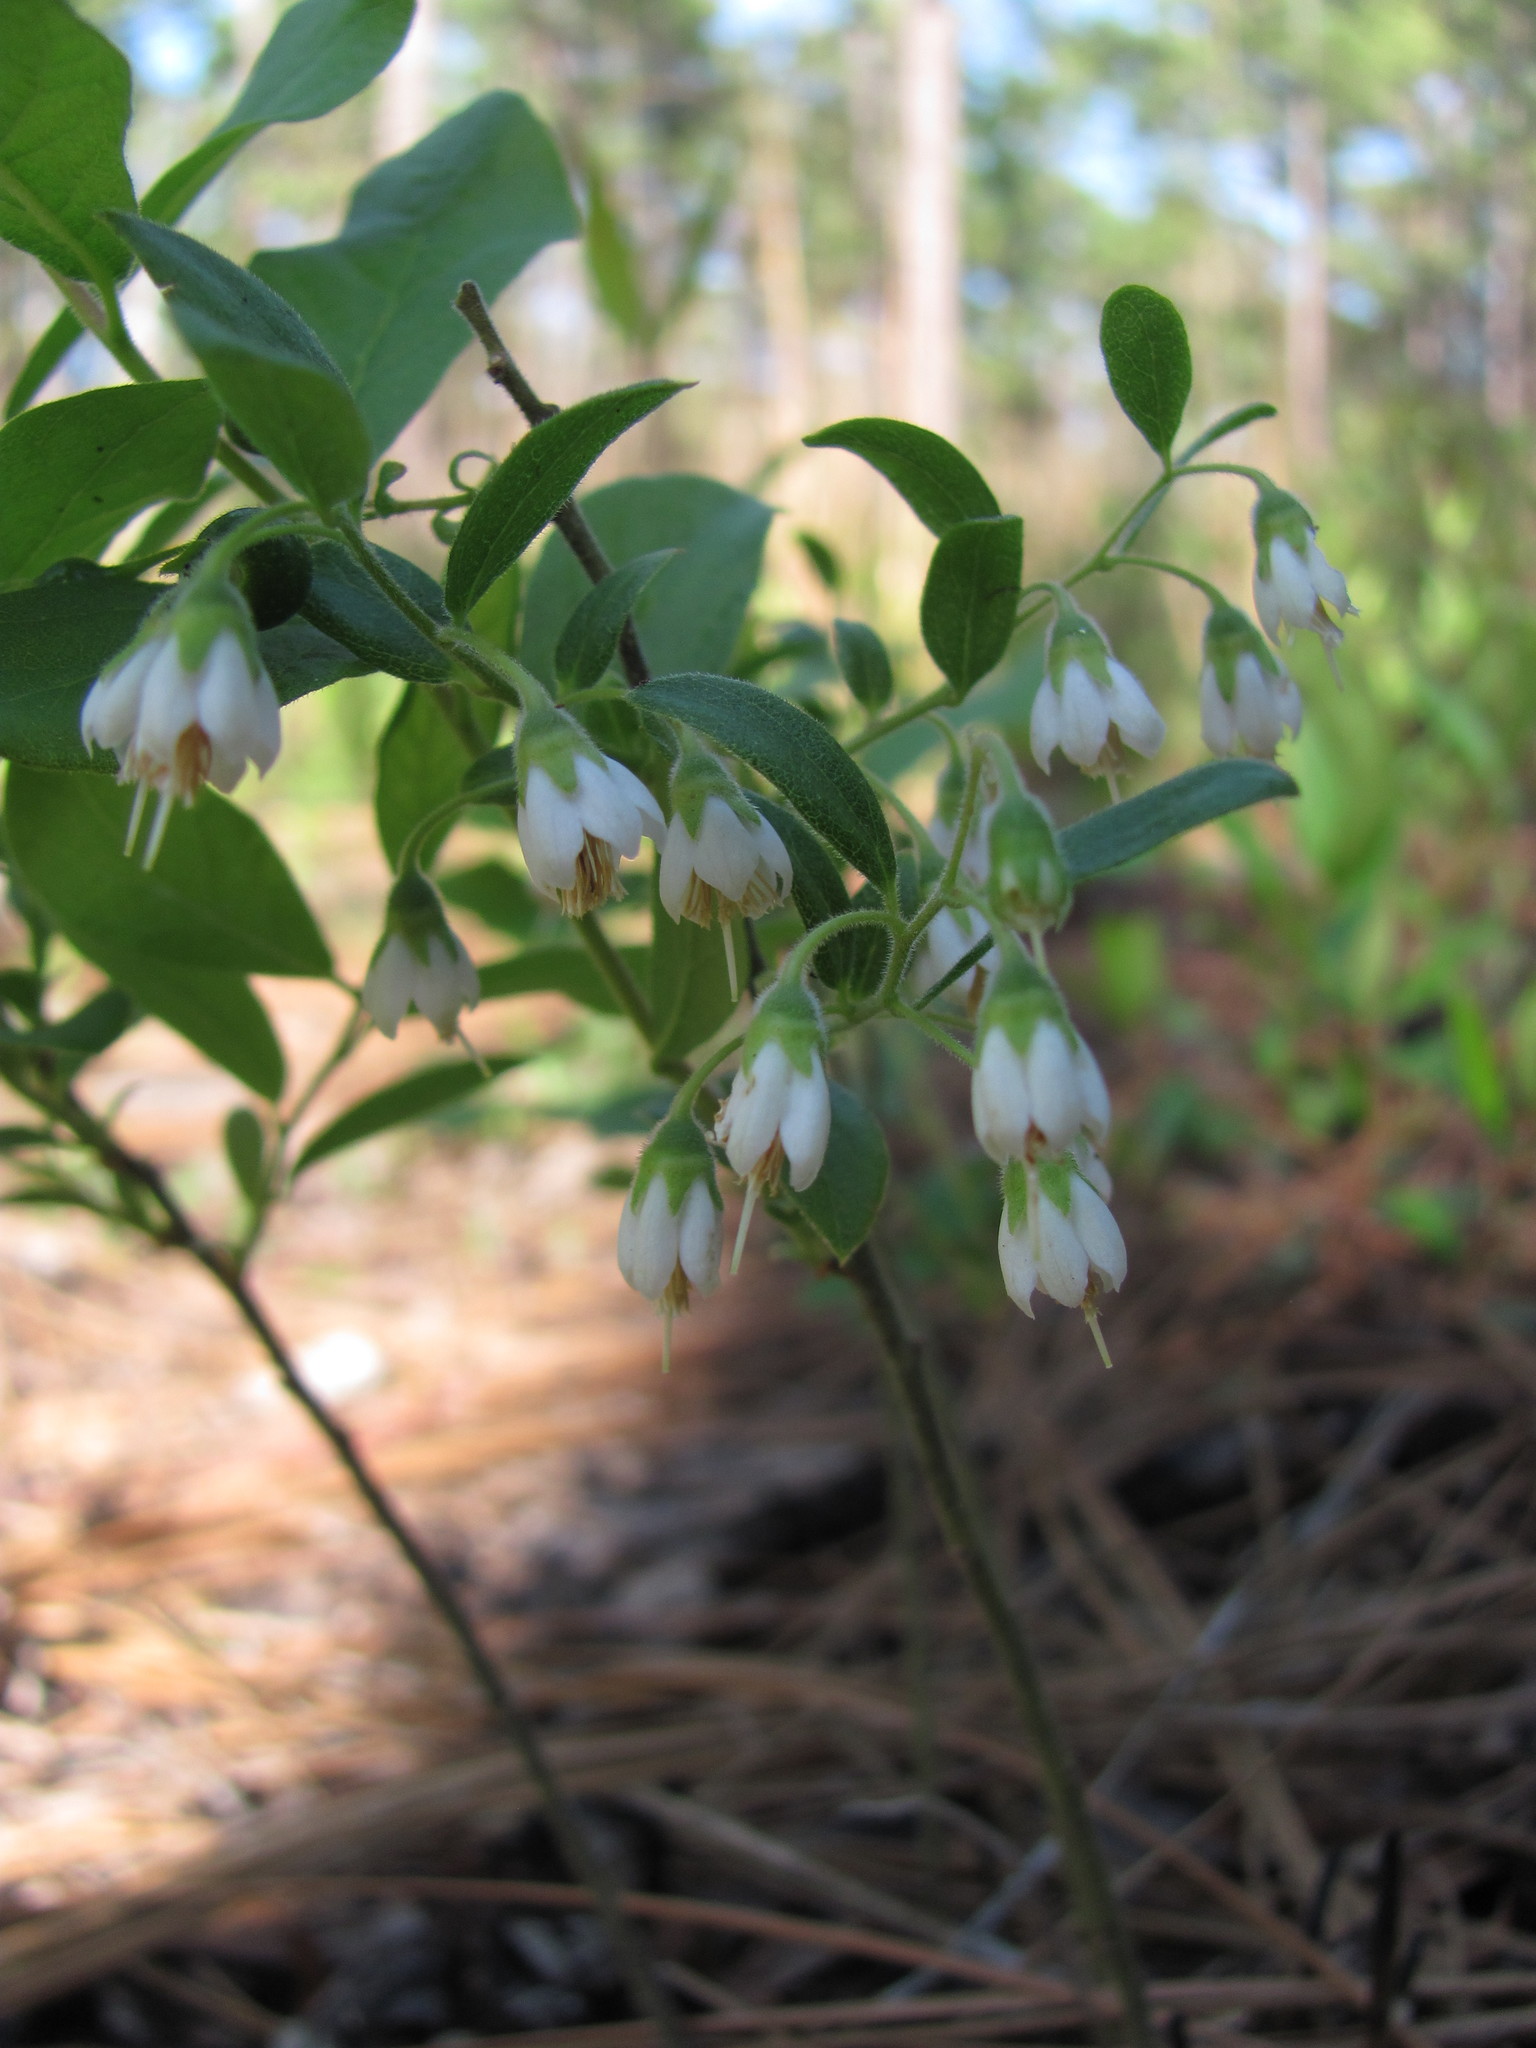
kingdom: Plantae
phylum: Tracheophyta
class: Magnoliopsida
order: Ericales
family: Ericaceae
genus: Vaccinium
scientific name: Vaccinium stamineum
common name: Deerberry
